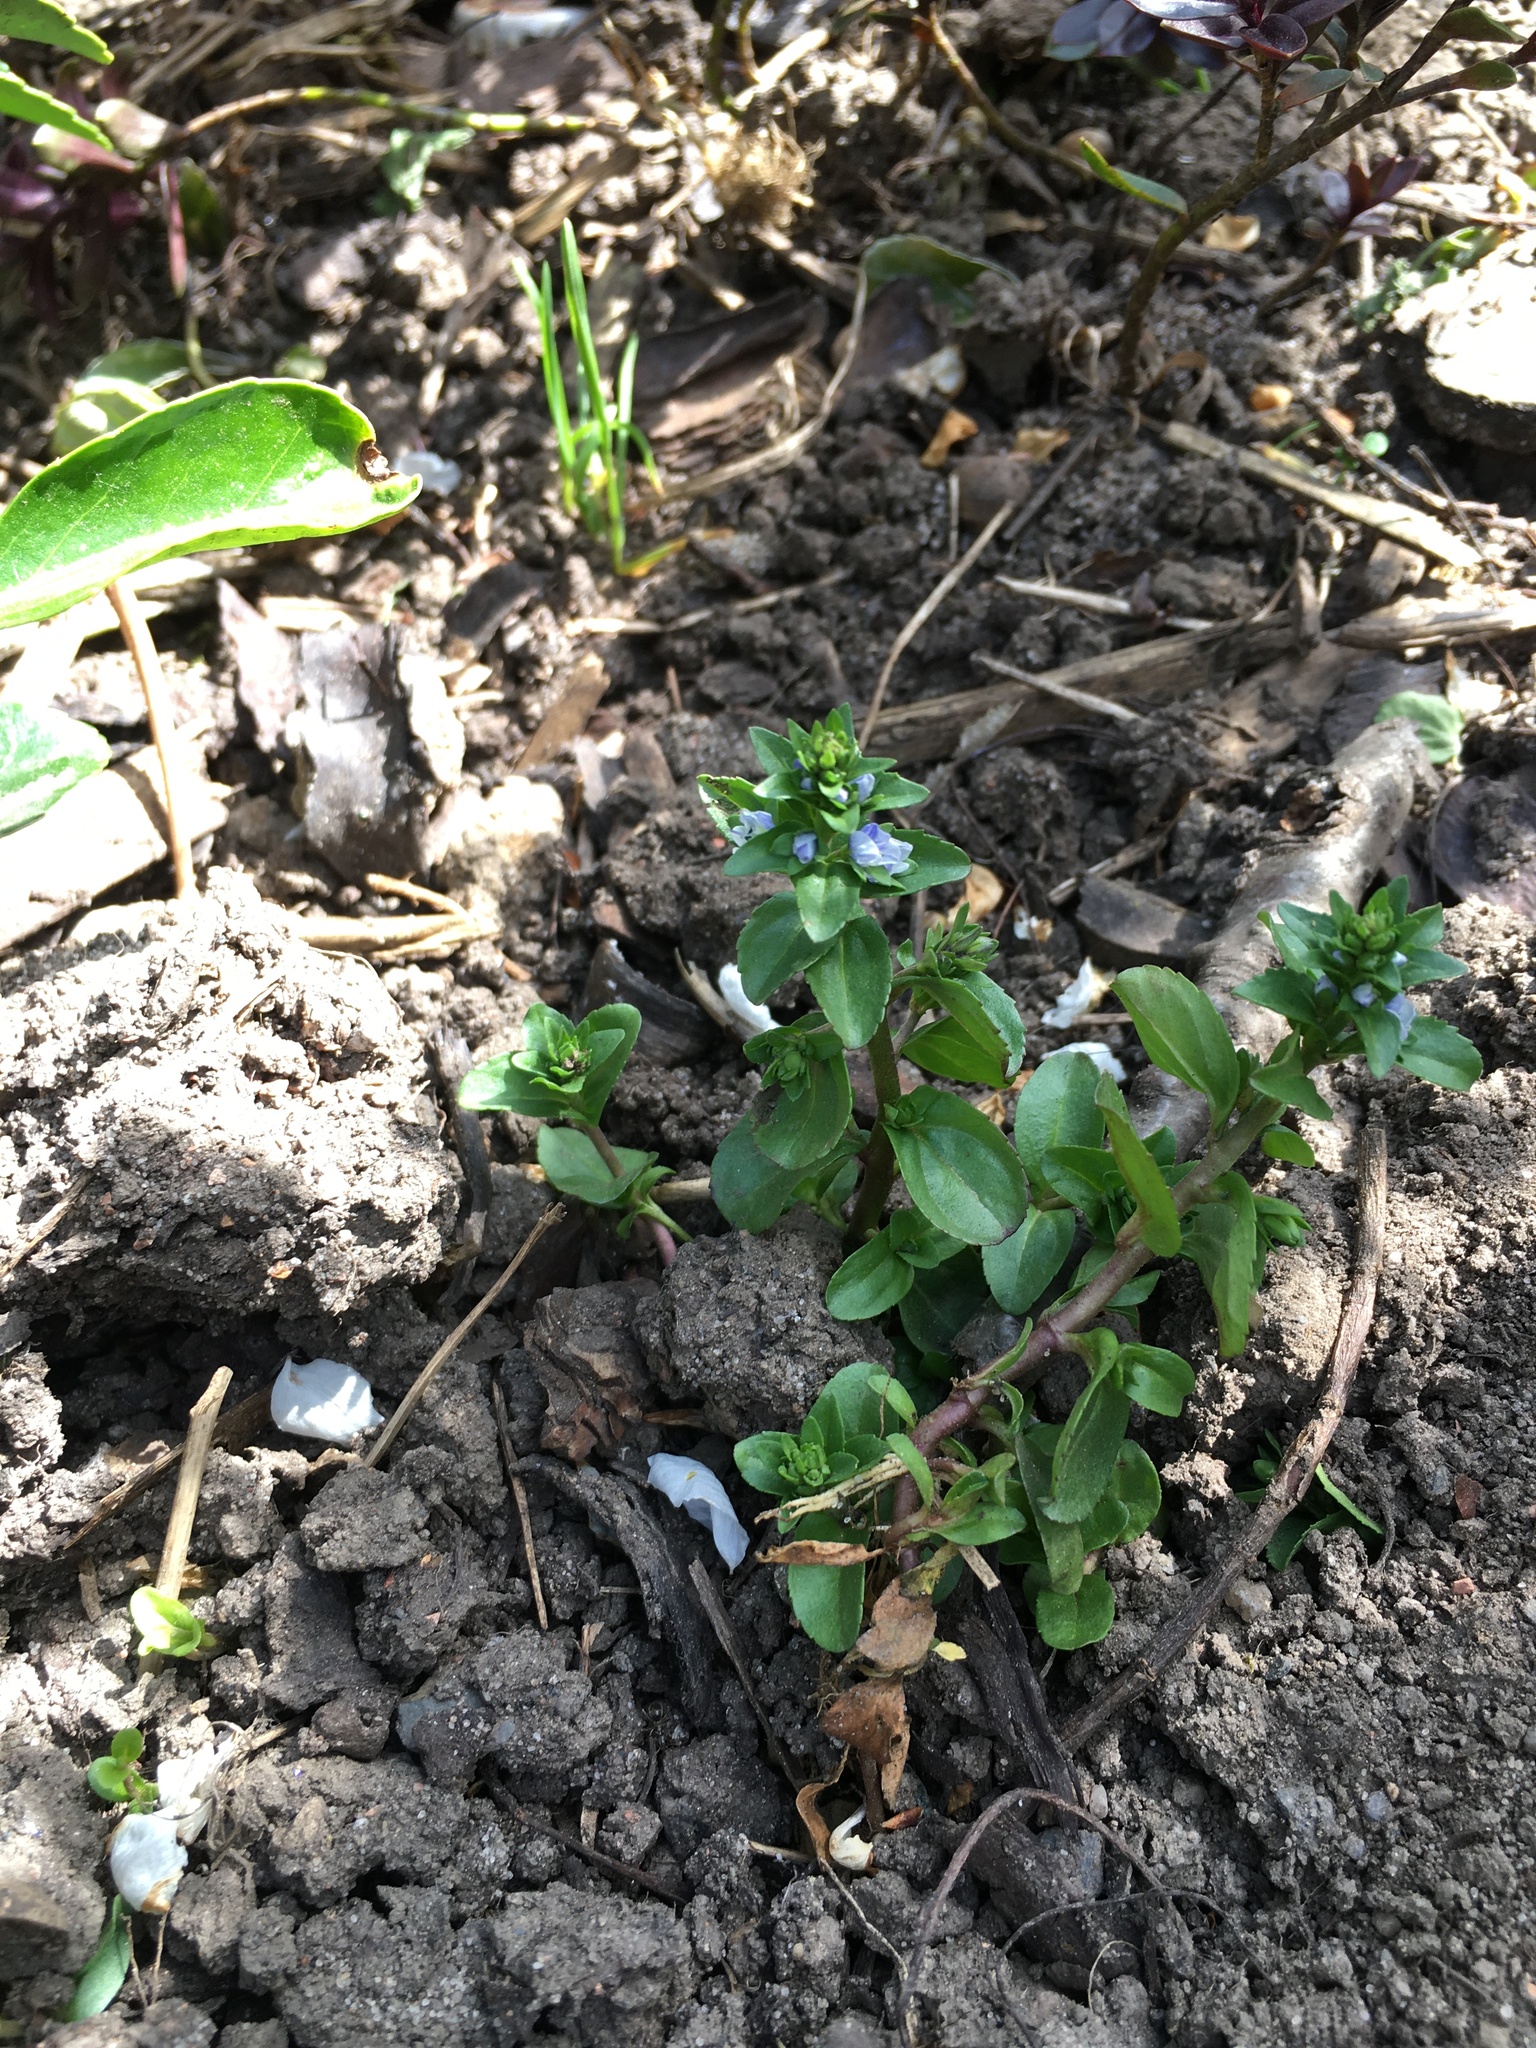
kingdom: Plantae
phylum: Tracheophyta
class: Magnoliopsida
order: Lamiales
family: Plantaginaceae
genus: Veronica
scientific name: Veronica serpyllifolia
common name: Thyme-leaved speedwell
